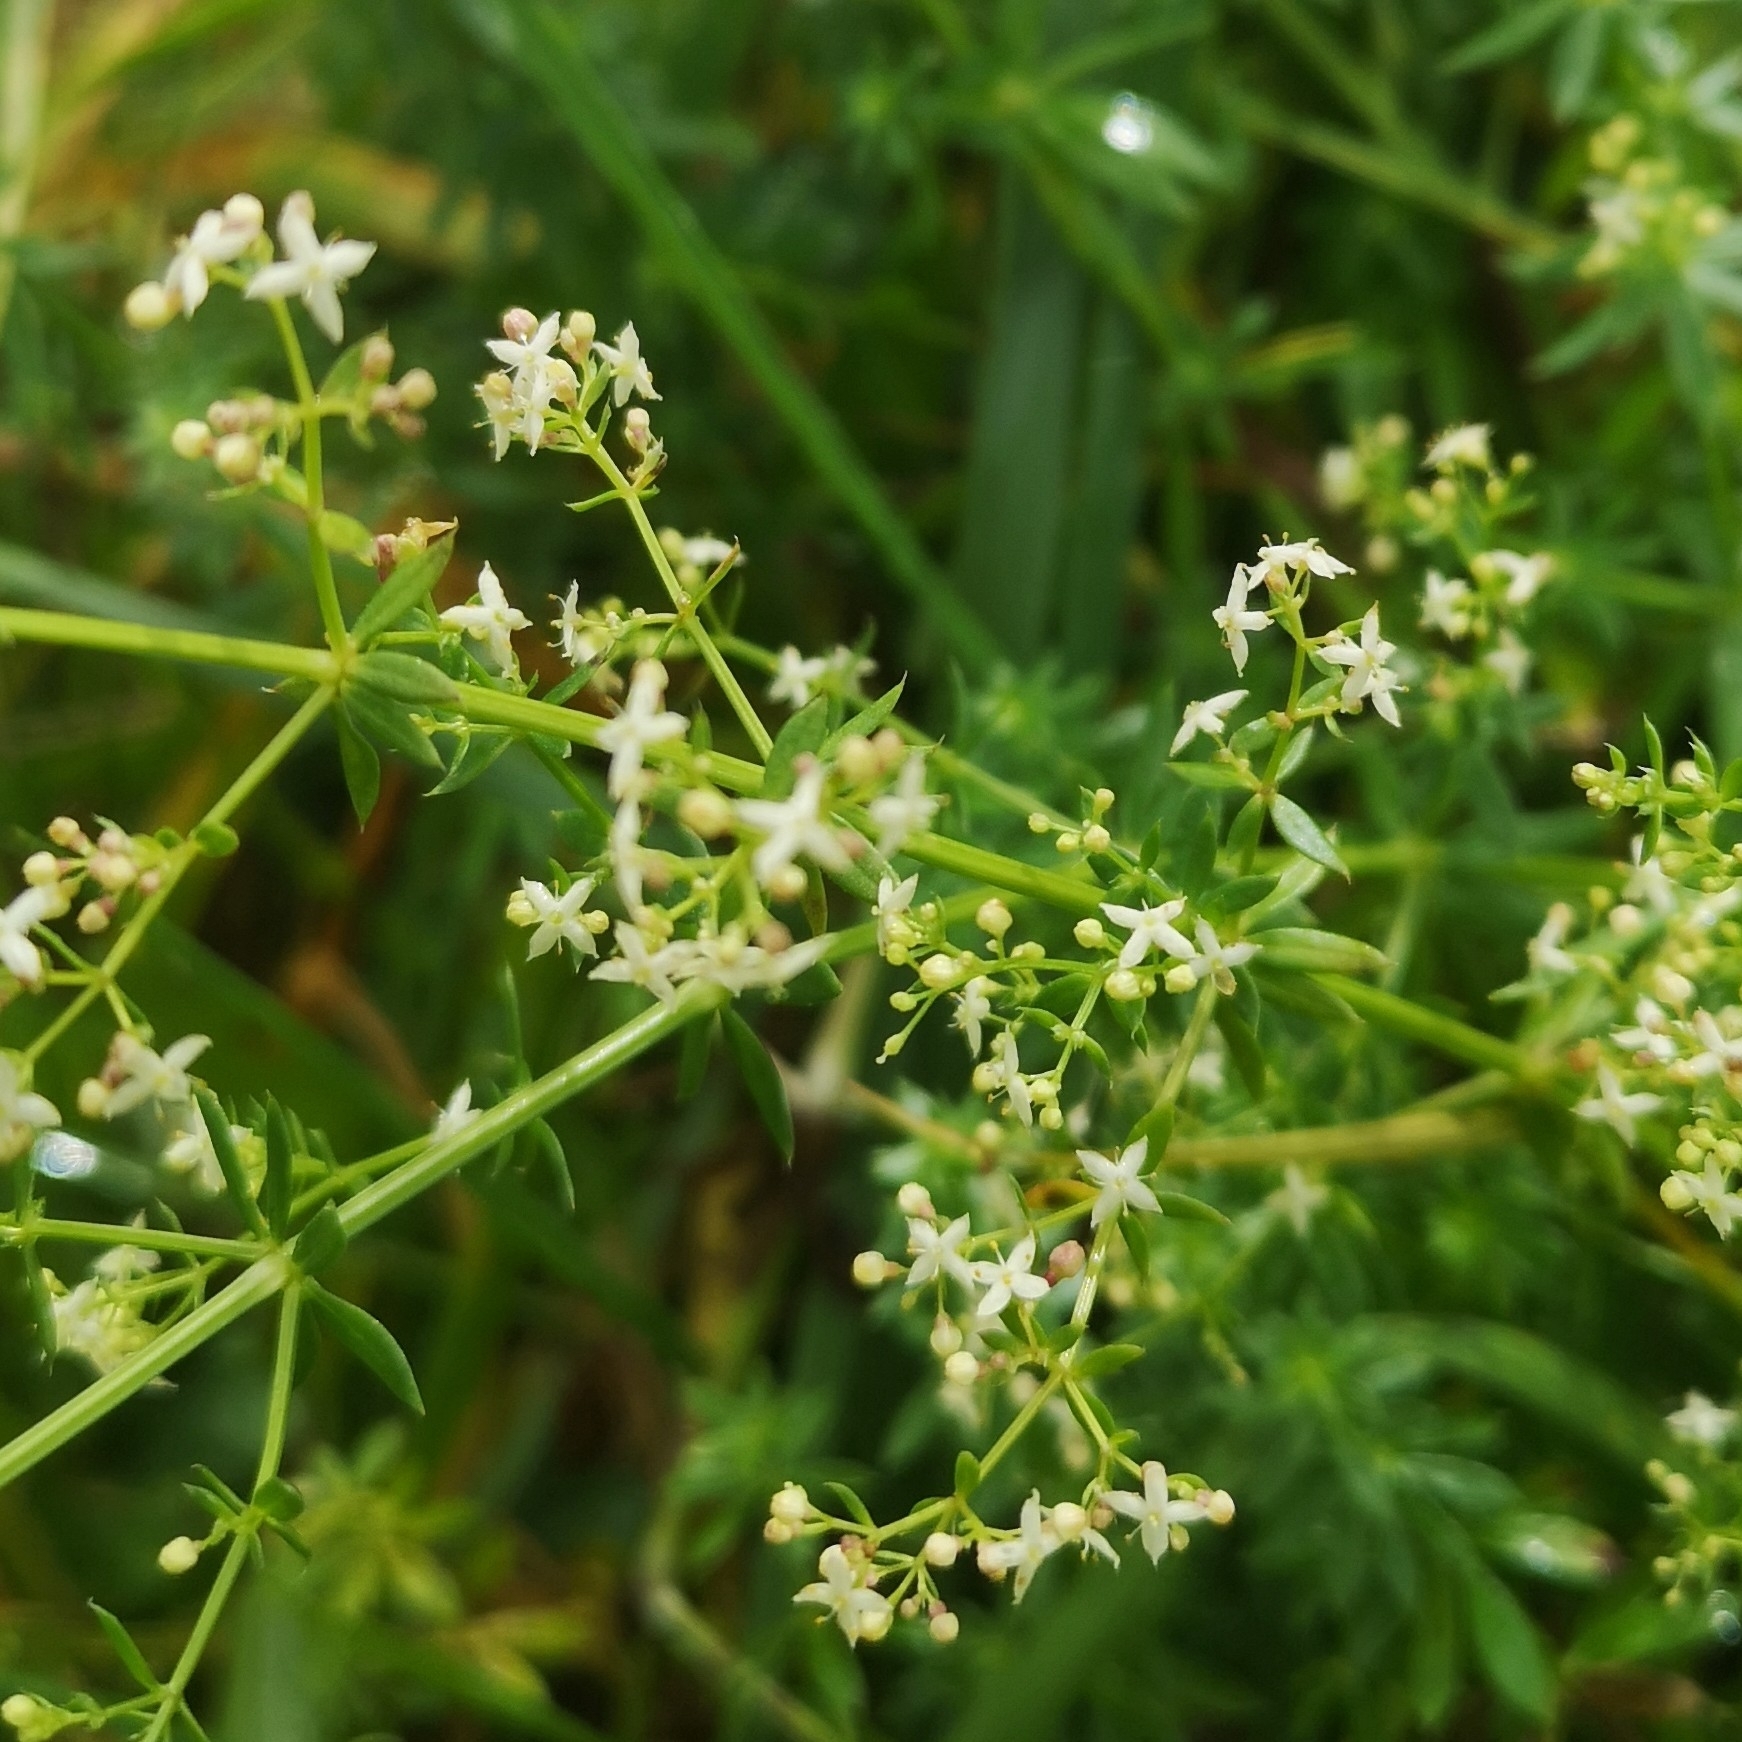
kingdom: Plantae
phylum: Tracheophyta
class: Magnoliopsida
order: Gentianales
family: Rubiaceae
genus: Galium
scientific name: Galium album
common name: White bedstraw
